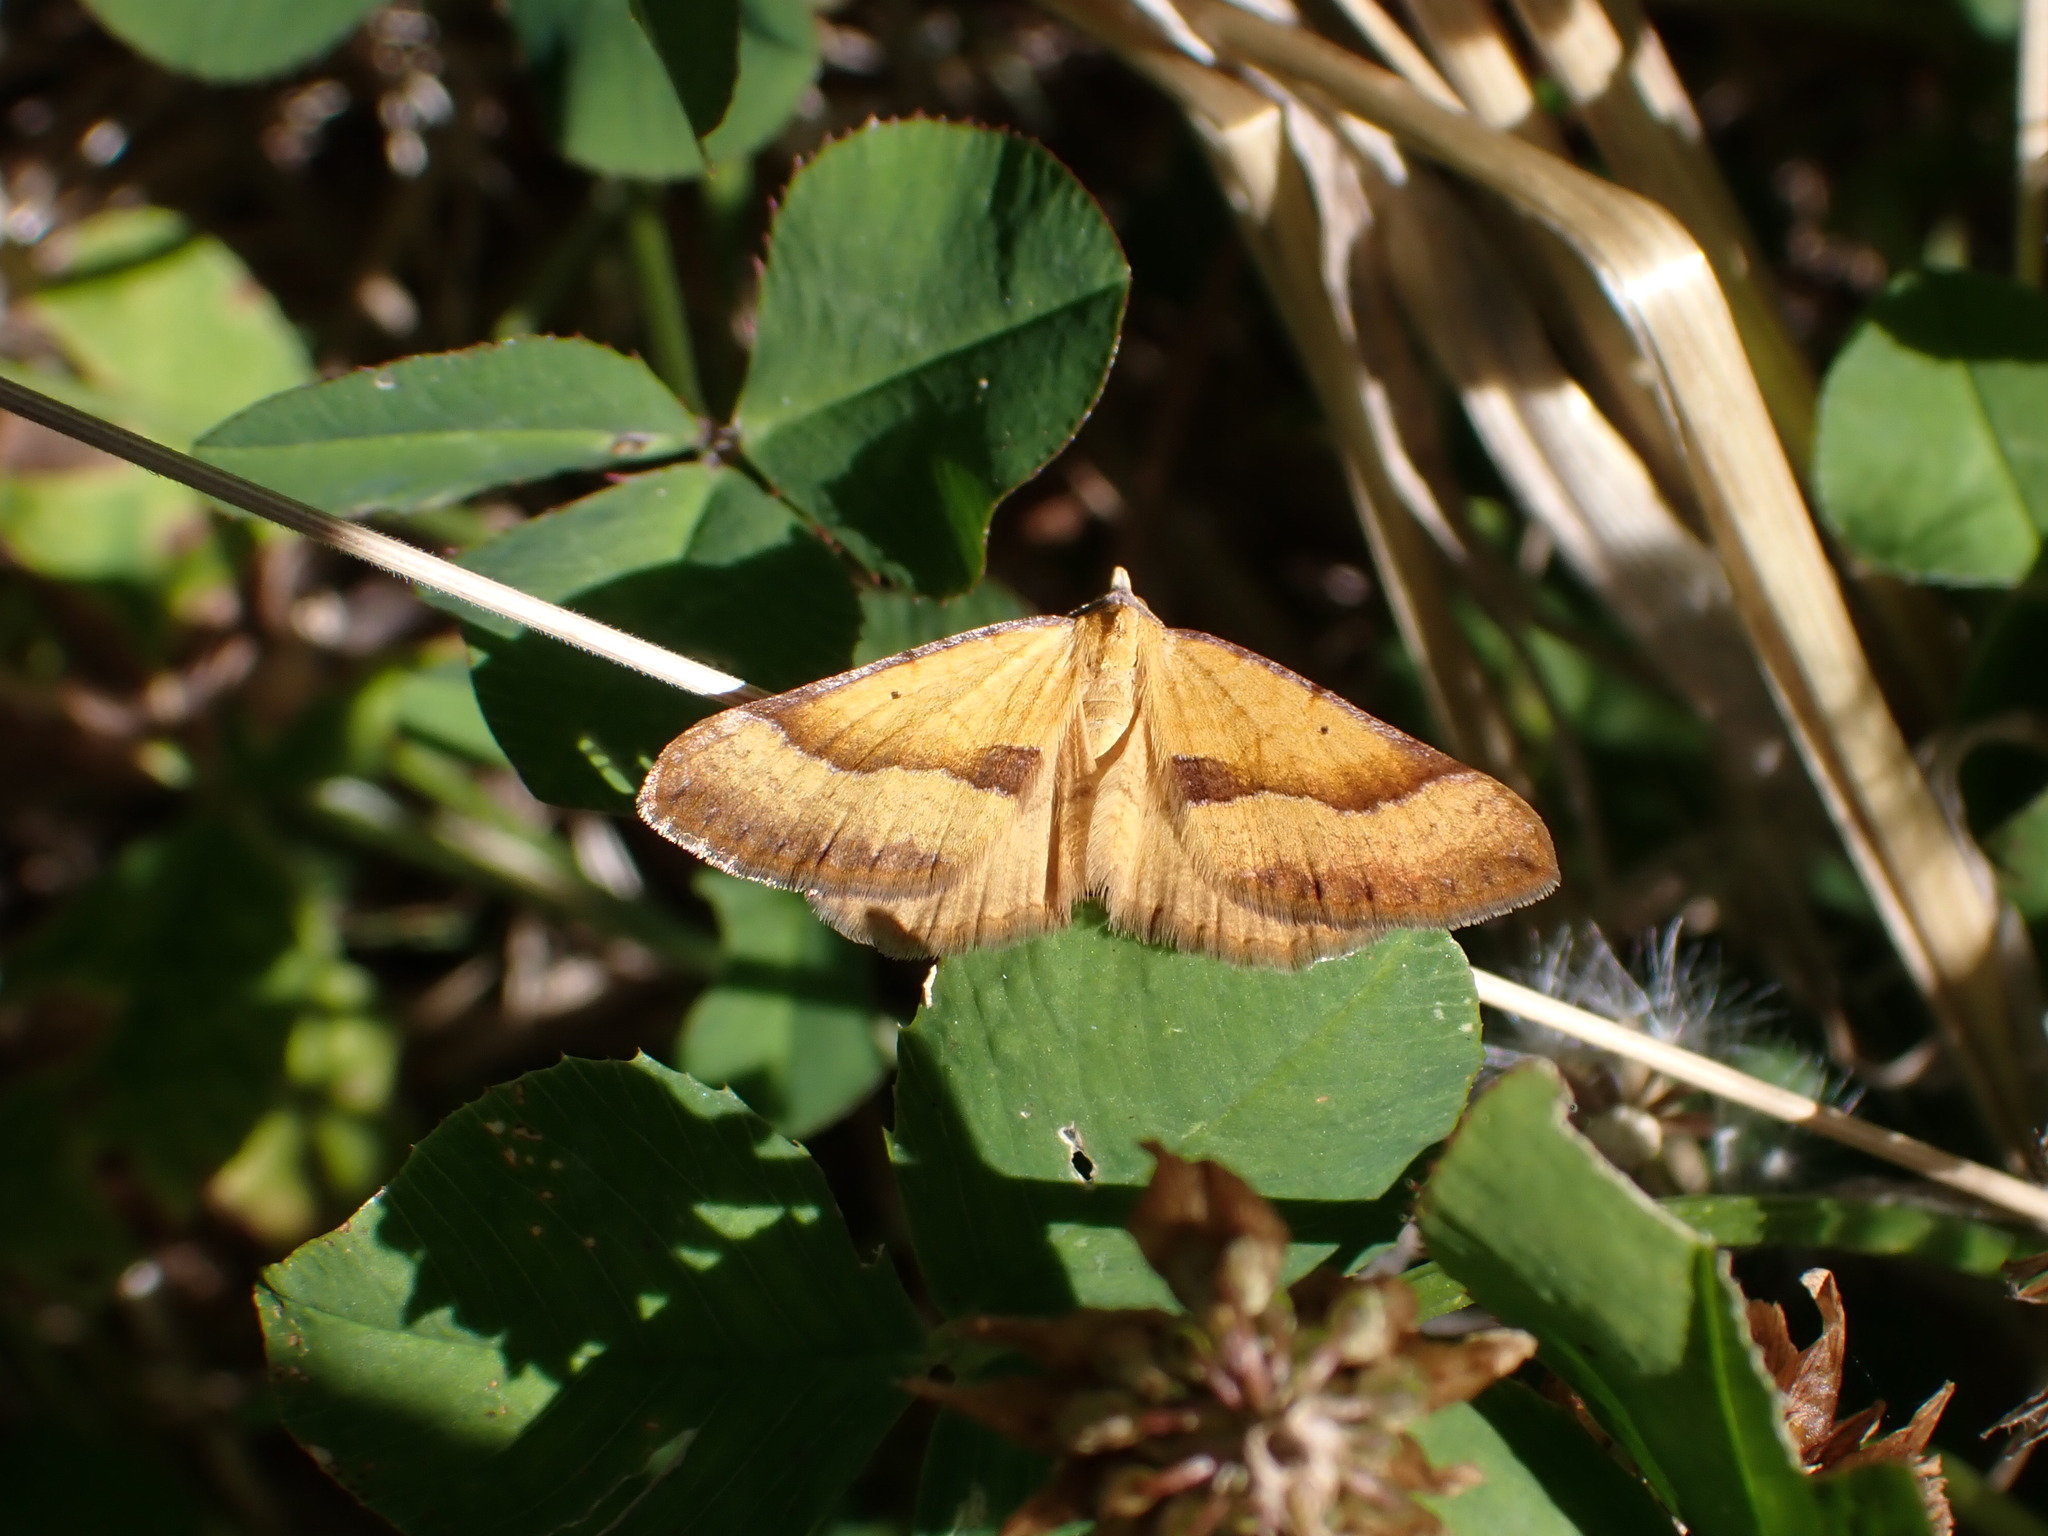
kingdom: Animalia
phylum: Arthropoda
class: Insecta
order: Lepidoptera
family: Geometridae
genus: Anachloris
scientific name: Anachloris subochraria
